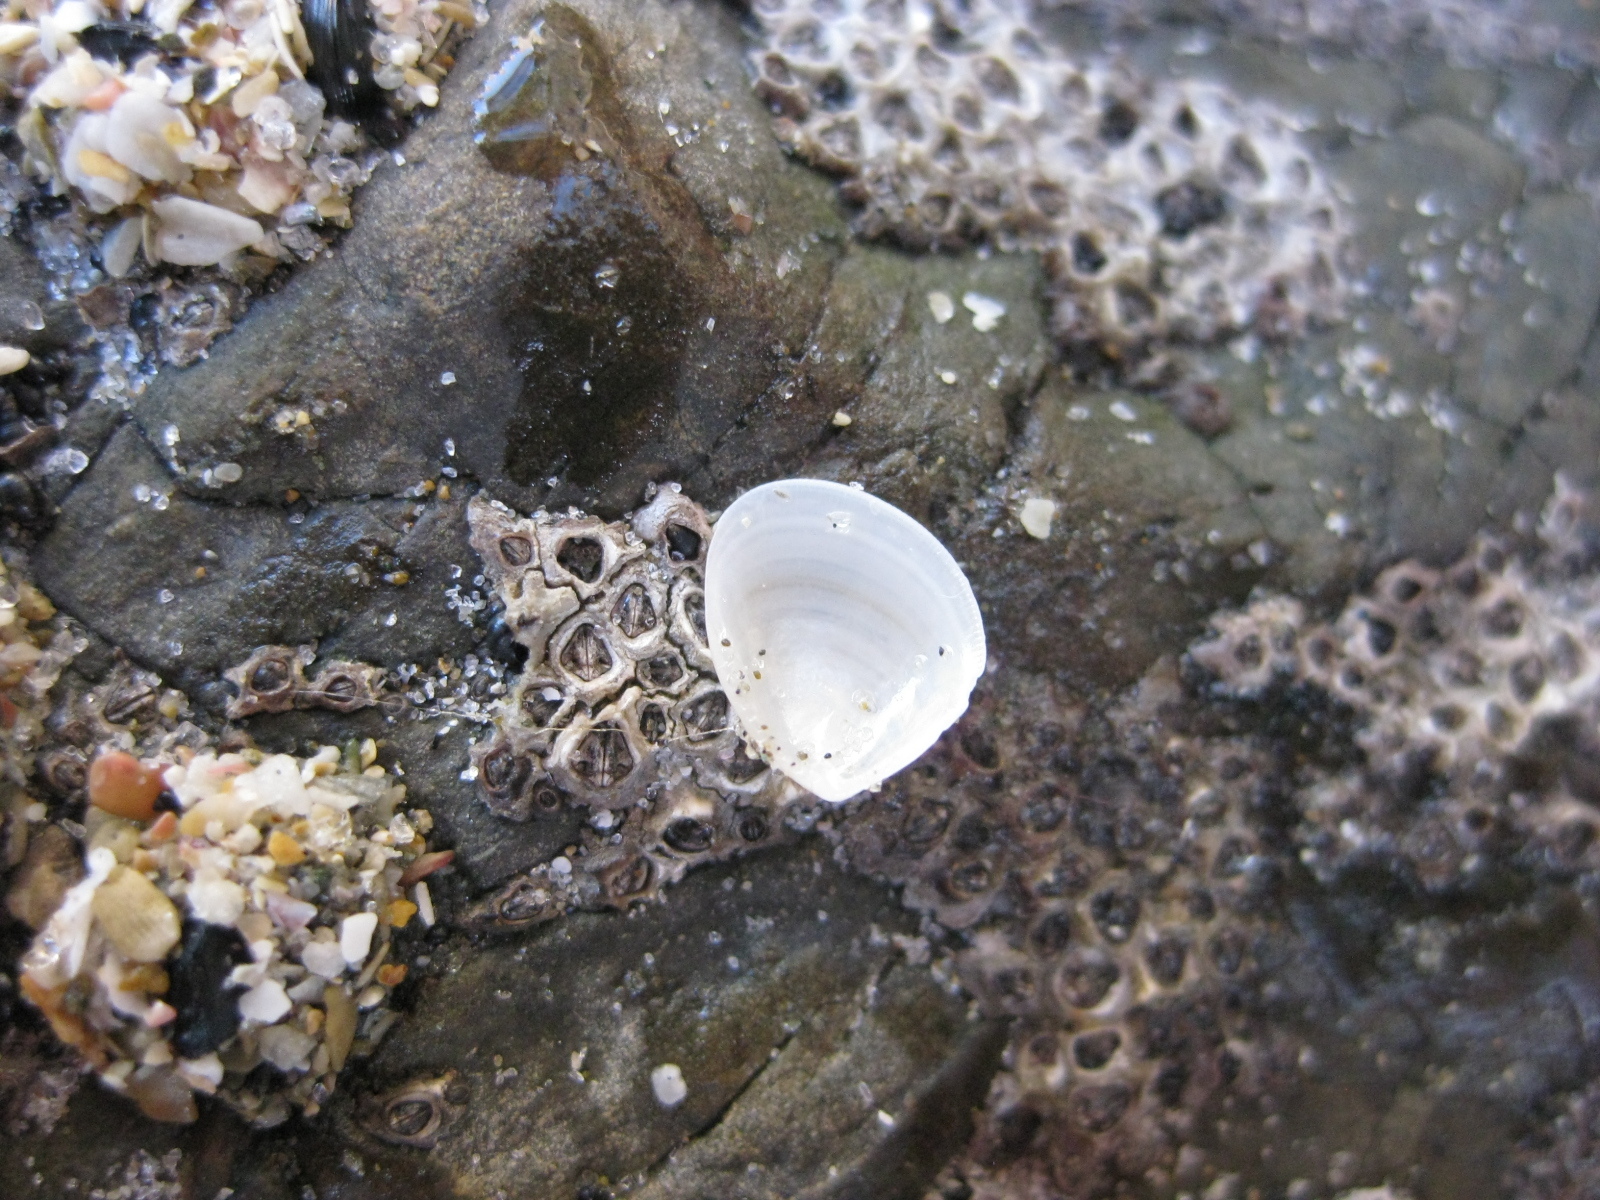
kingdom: Animalia
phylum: Mollusca
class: Bivalvia
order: Nuculida
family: Nuculidae
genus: Nucula
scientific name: Nucula nitidula
